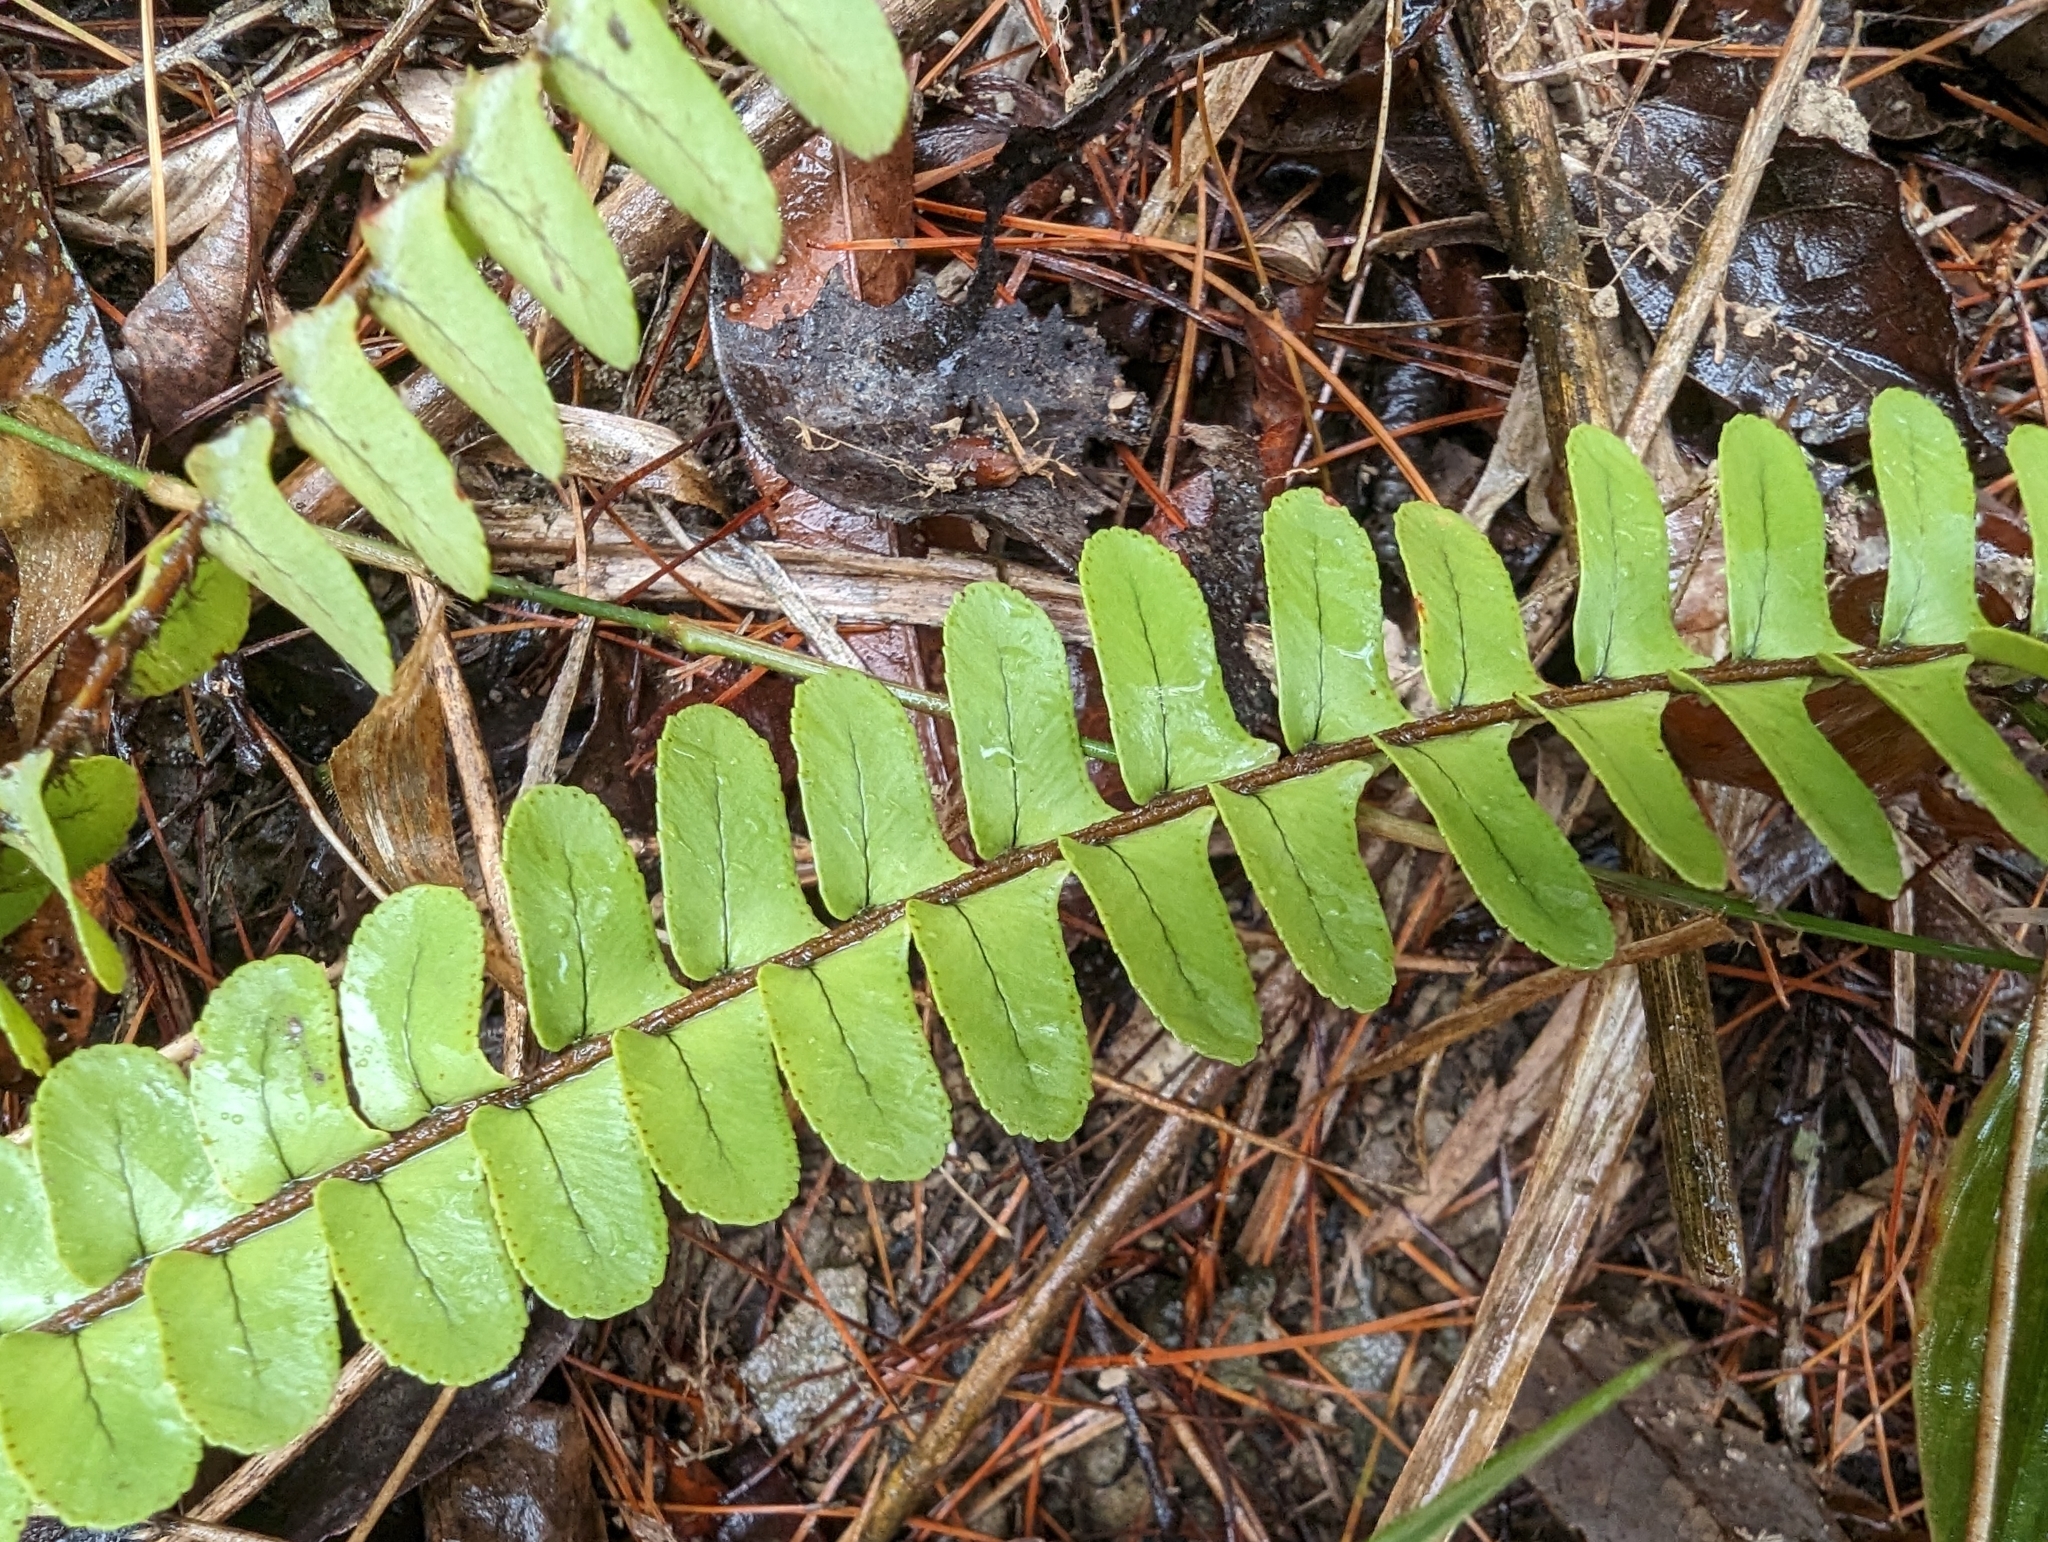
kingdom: Plantae
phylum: Tracheophyta
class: Polypodiopsida
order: Polypodiales
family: Nephrolepidaceae
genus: Nephrolepis
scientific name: Nephrolepis cordifolia
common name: Narrow swordfern
